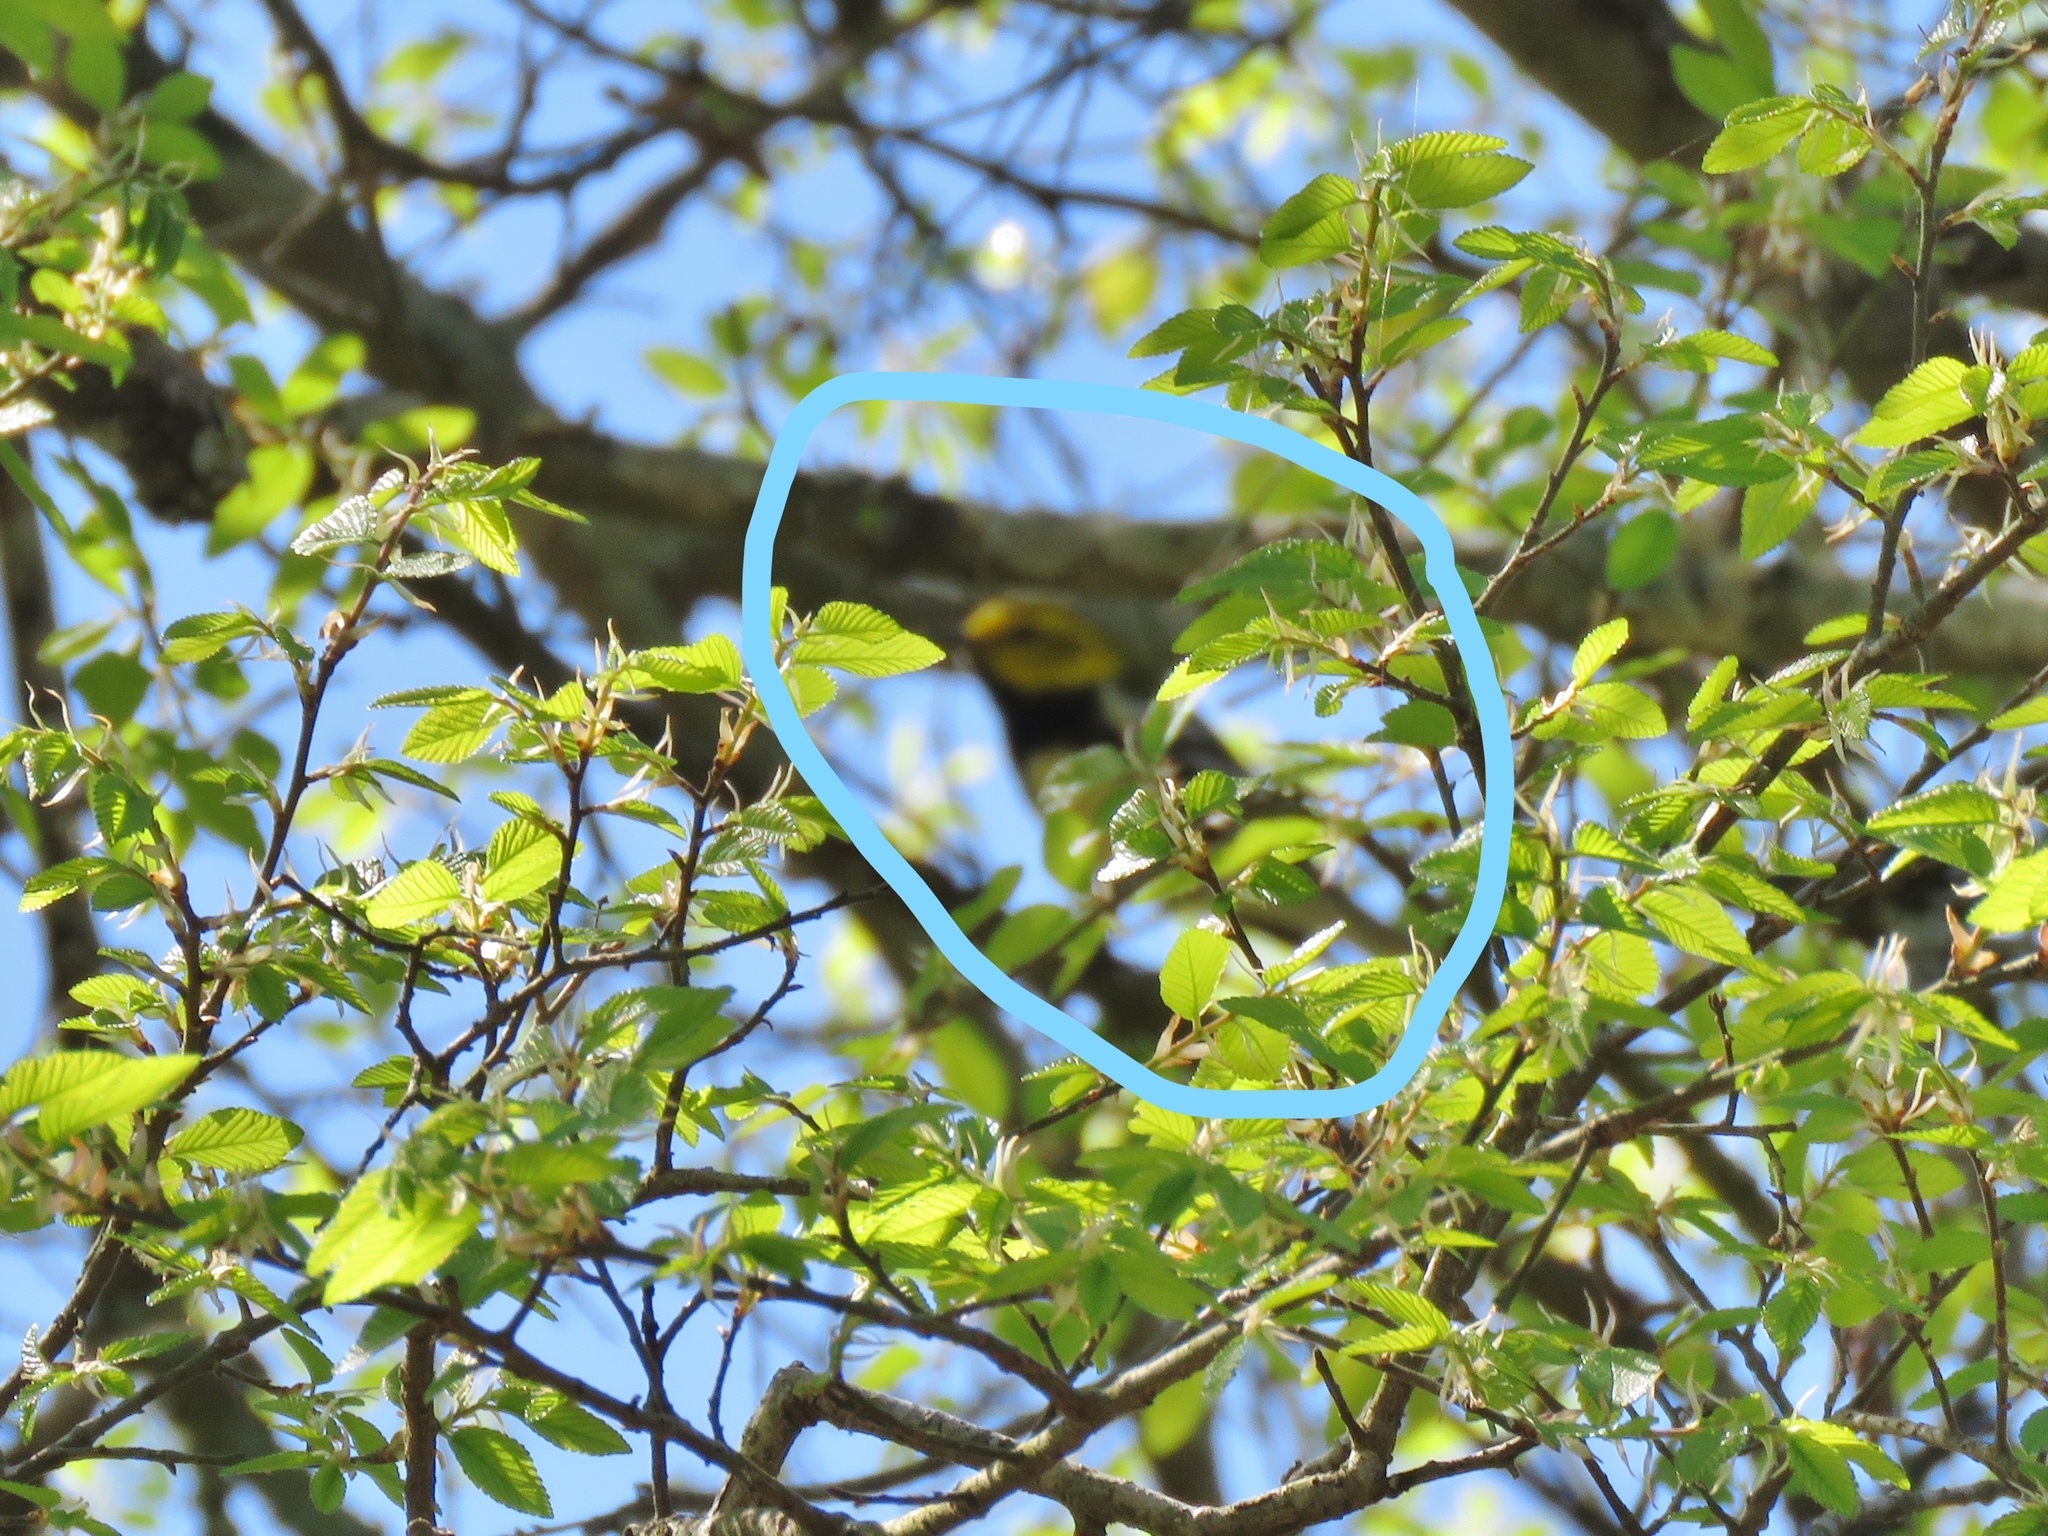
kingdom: Animalia
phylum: Chordata
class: Aves
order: Passeriformes
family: Parulidae
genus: Setophaga
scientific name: Setophaga virens
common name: Black-throated green warbler
